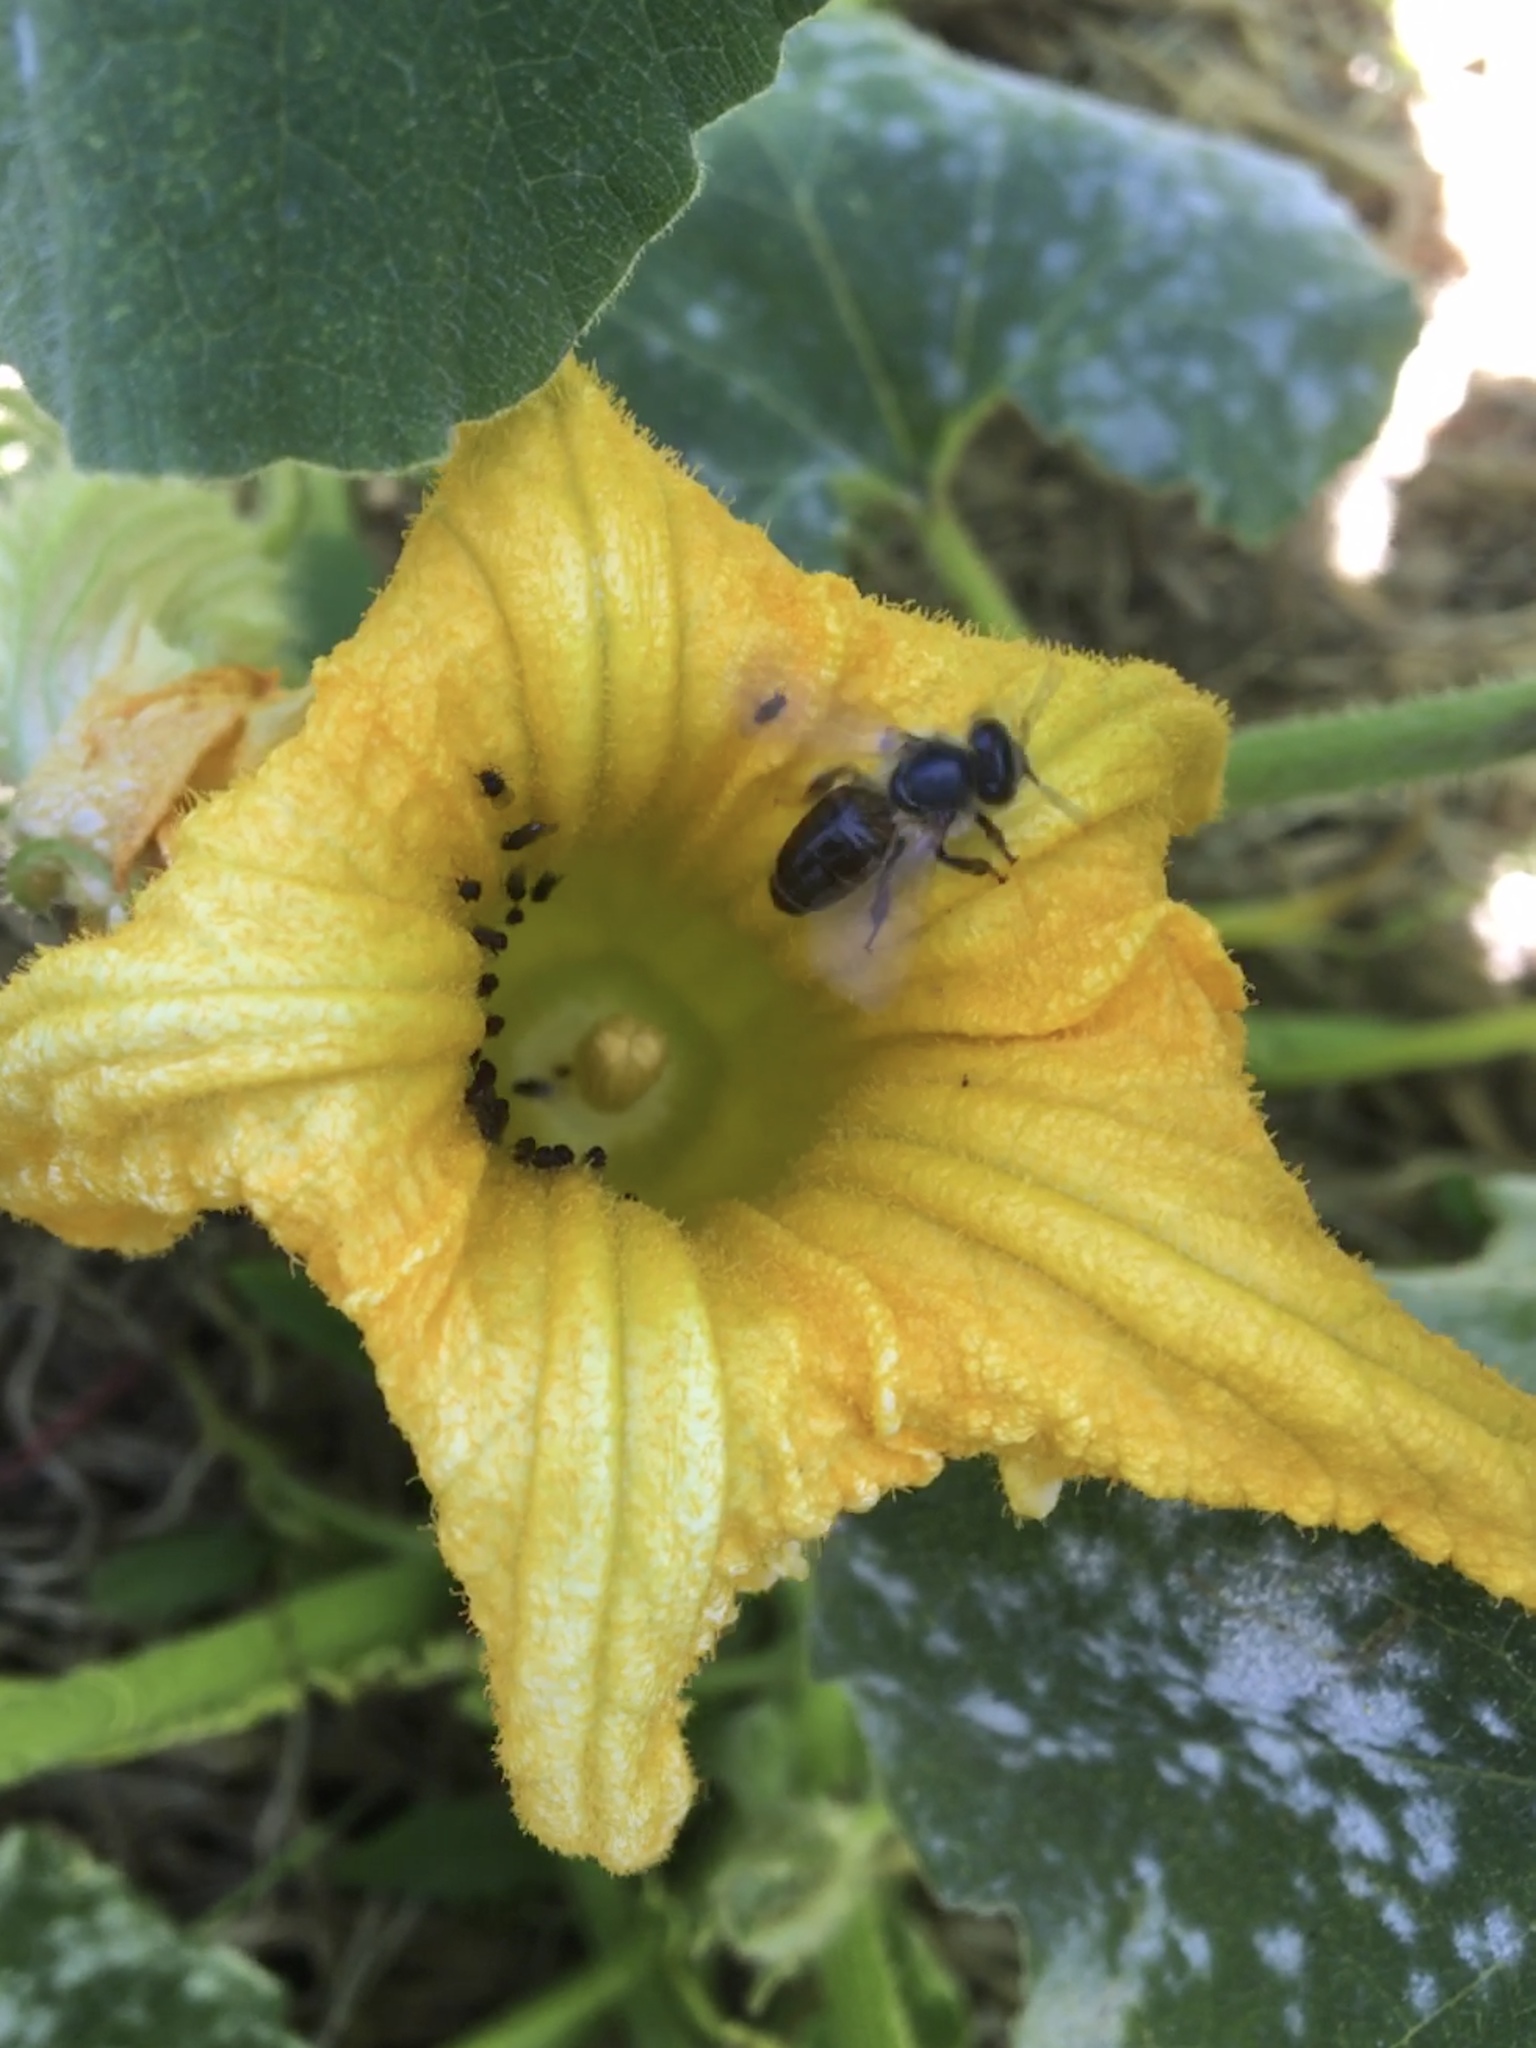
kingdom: Animalia
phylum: Arthropoda
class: Insecta
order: Hymenoptera
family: Apidae
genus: Apis
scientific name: Apis mellifera
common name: Honey bee
